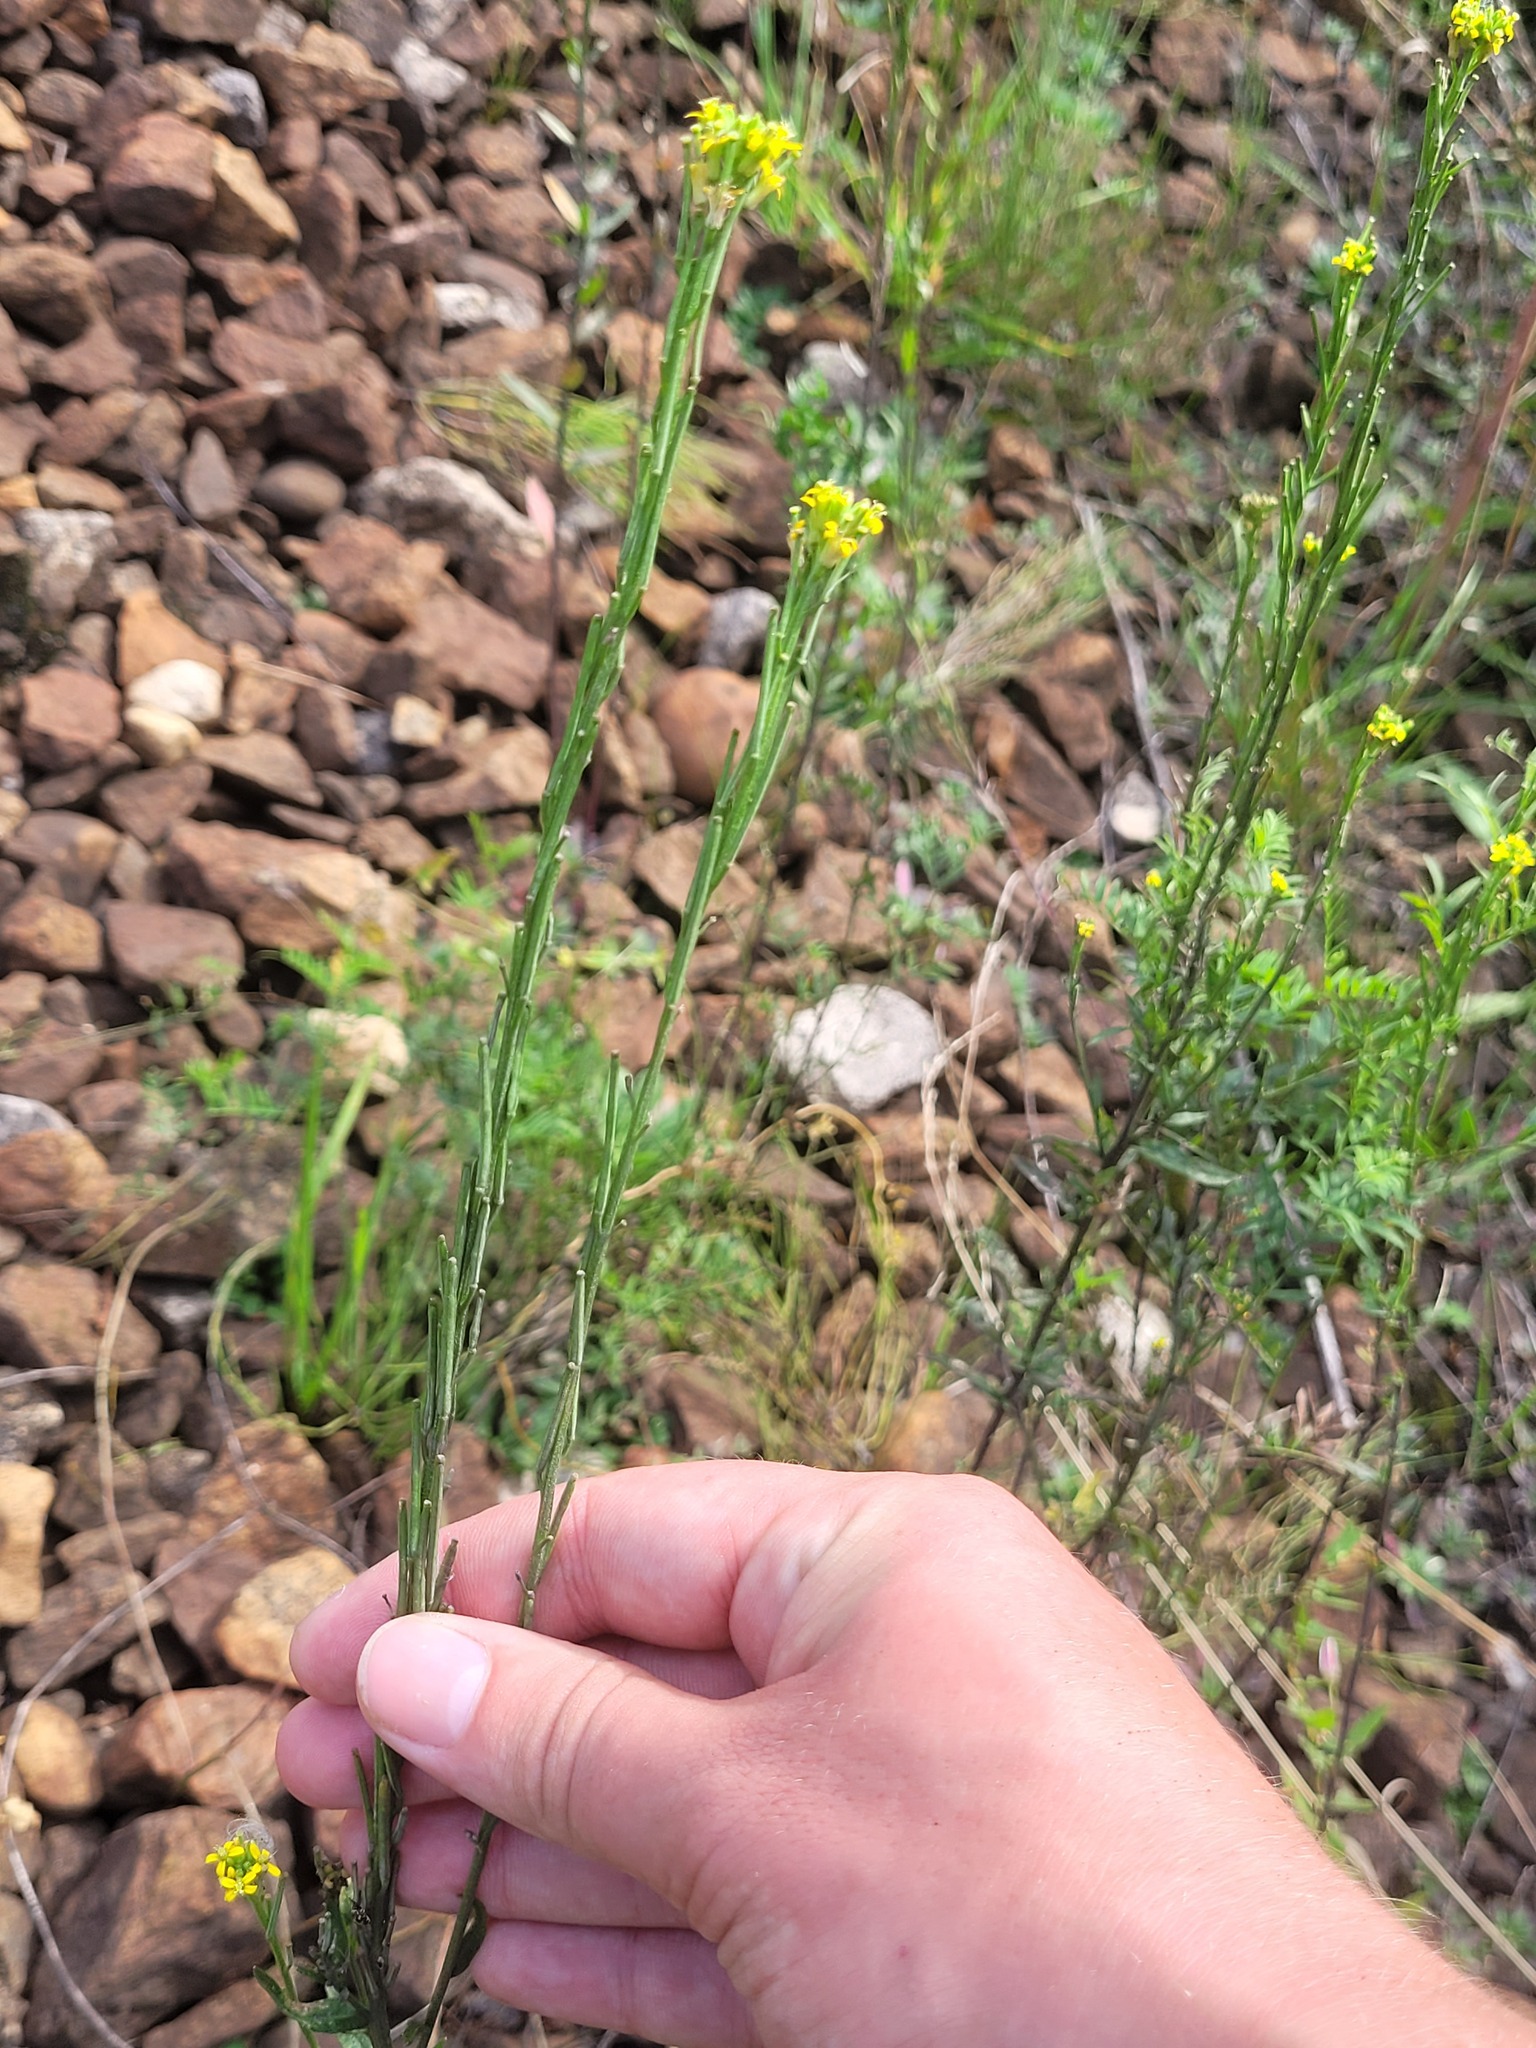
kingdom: Plantae
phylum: Tracheophyta
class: Magnoliopsida
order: Brassicales
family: Brassicaceae
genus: Erysimum
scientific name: Erysimum hieraciifolium
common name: European wallflower
